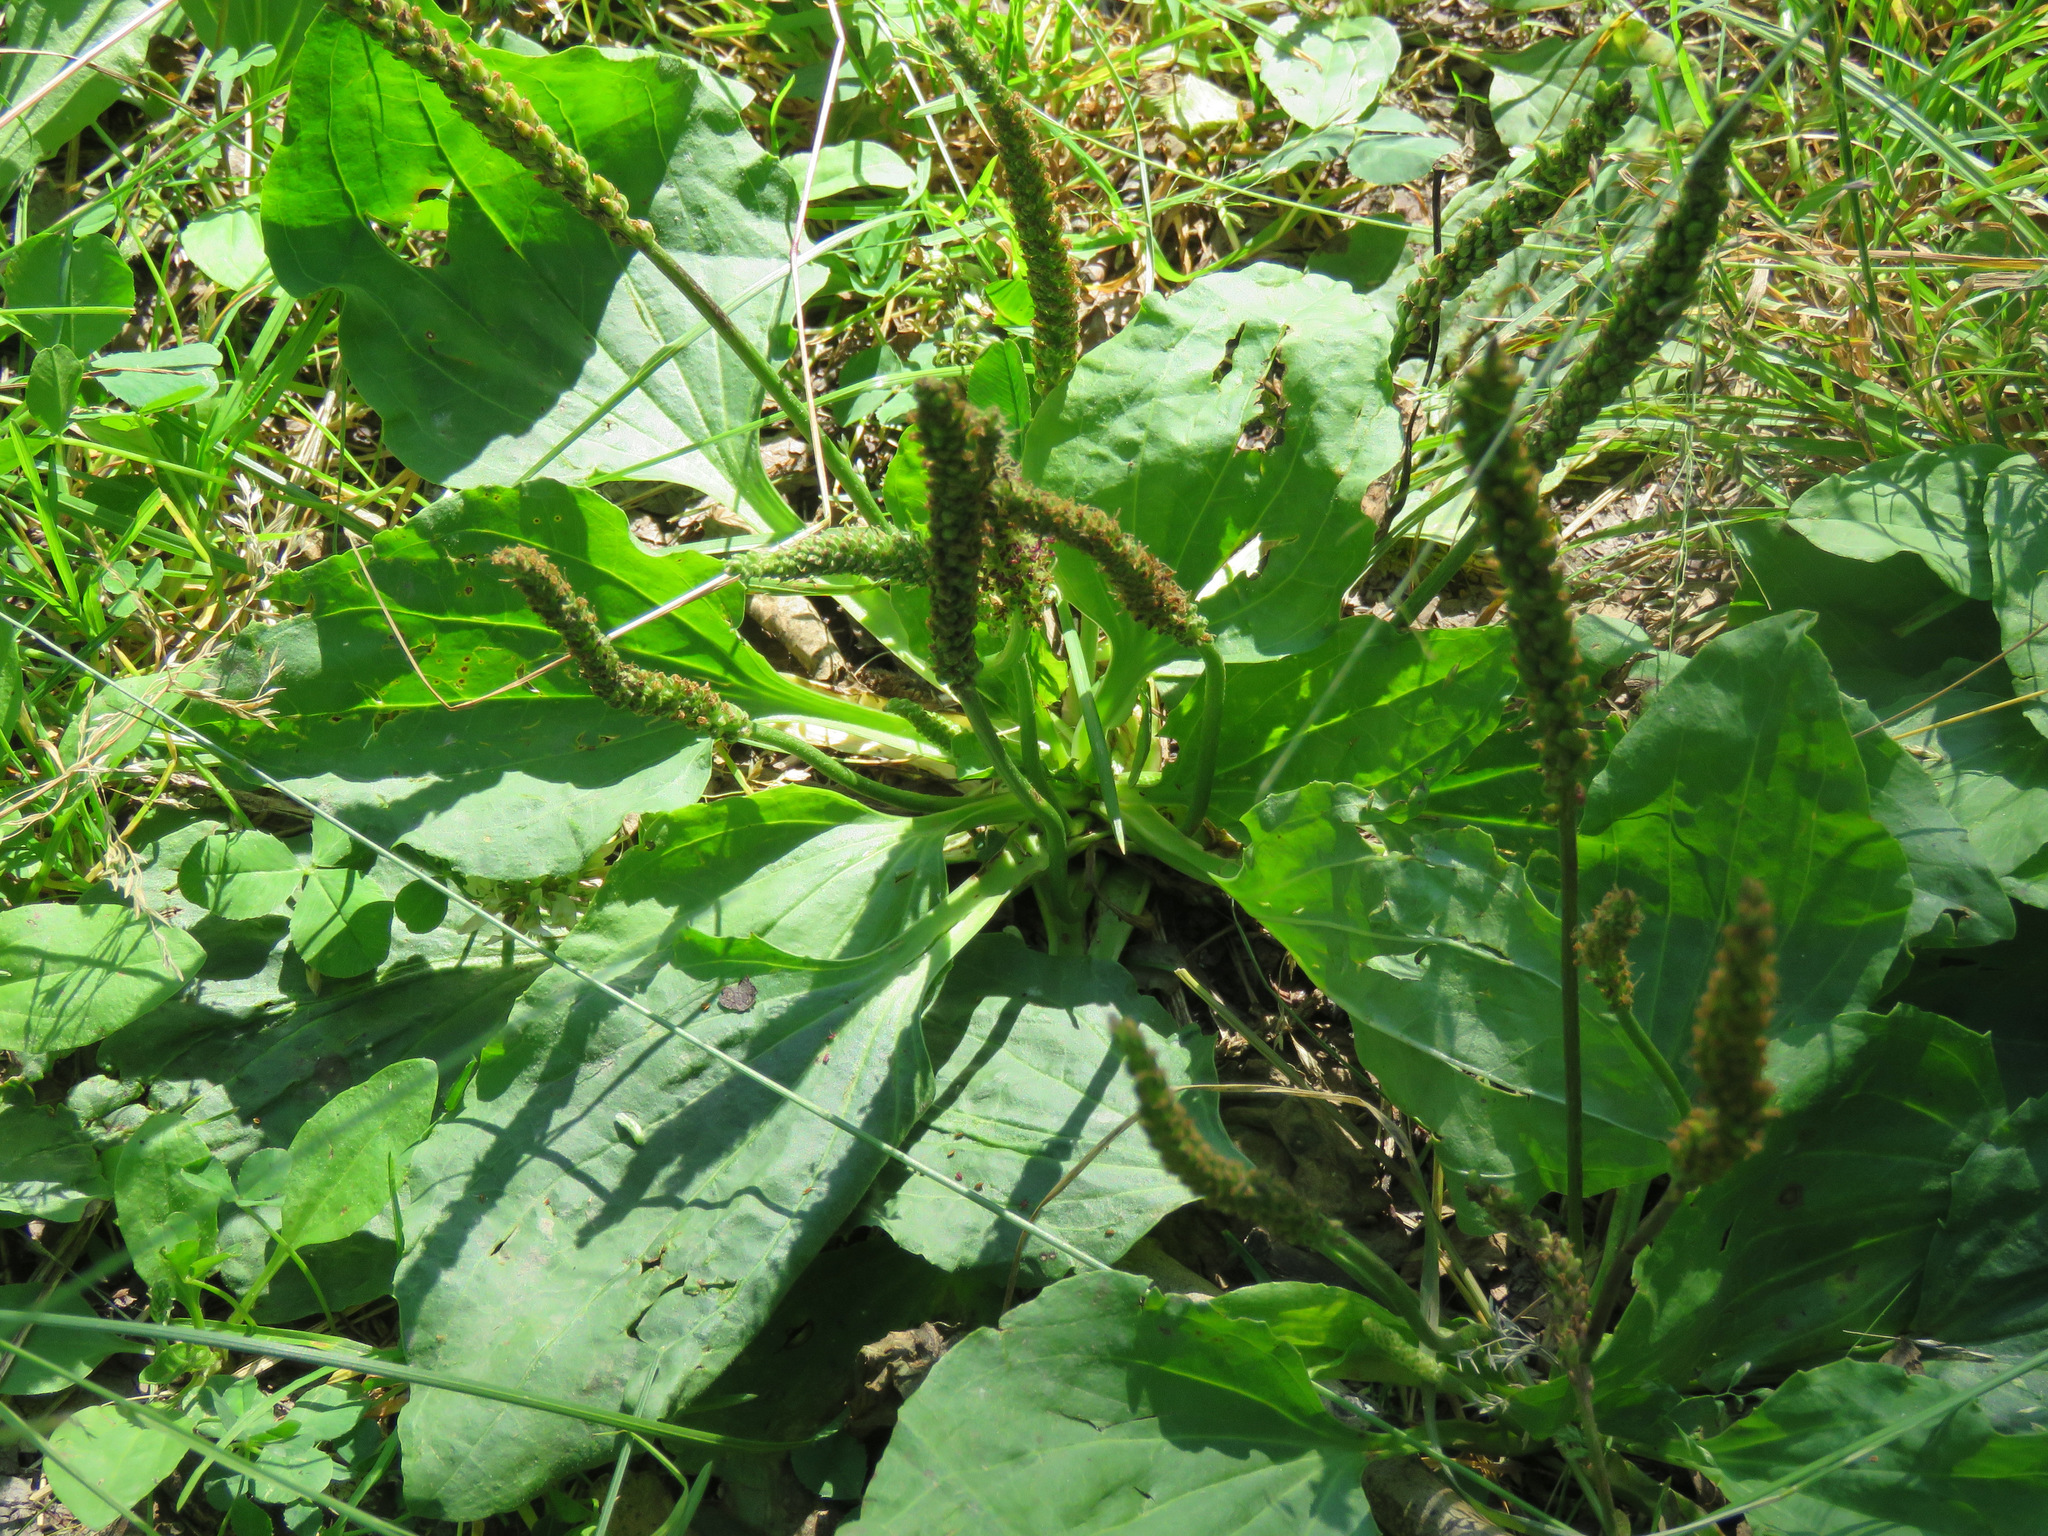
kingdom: Plantae
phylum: Tracheophyta
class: Magnoliopsida
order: Lamiales
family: Plantaginaceae
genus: Plantago
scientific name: Plantago major
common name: Common plantain
